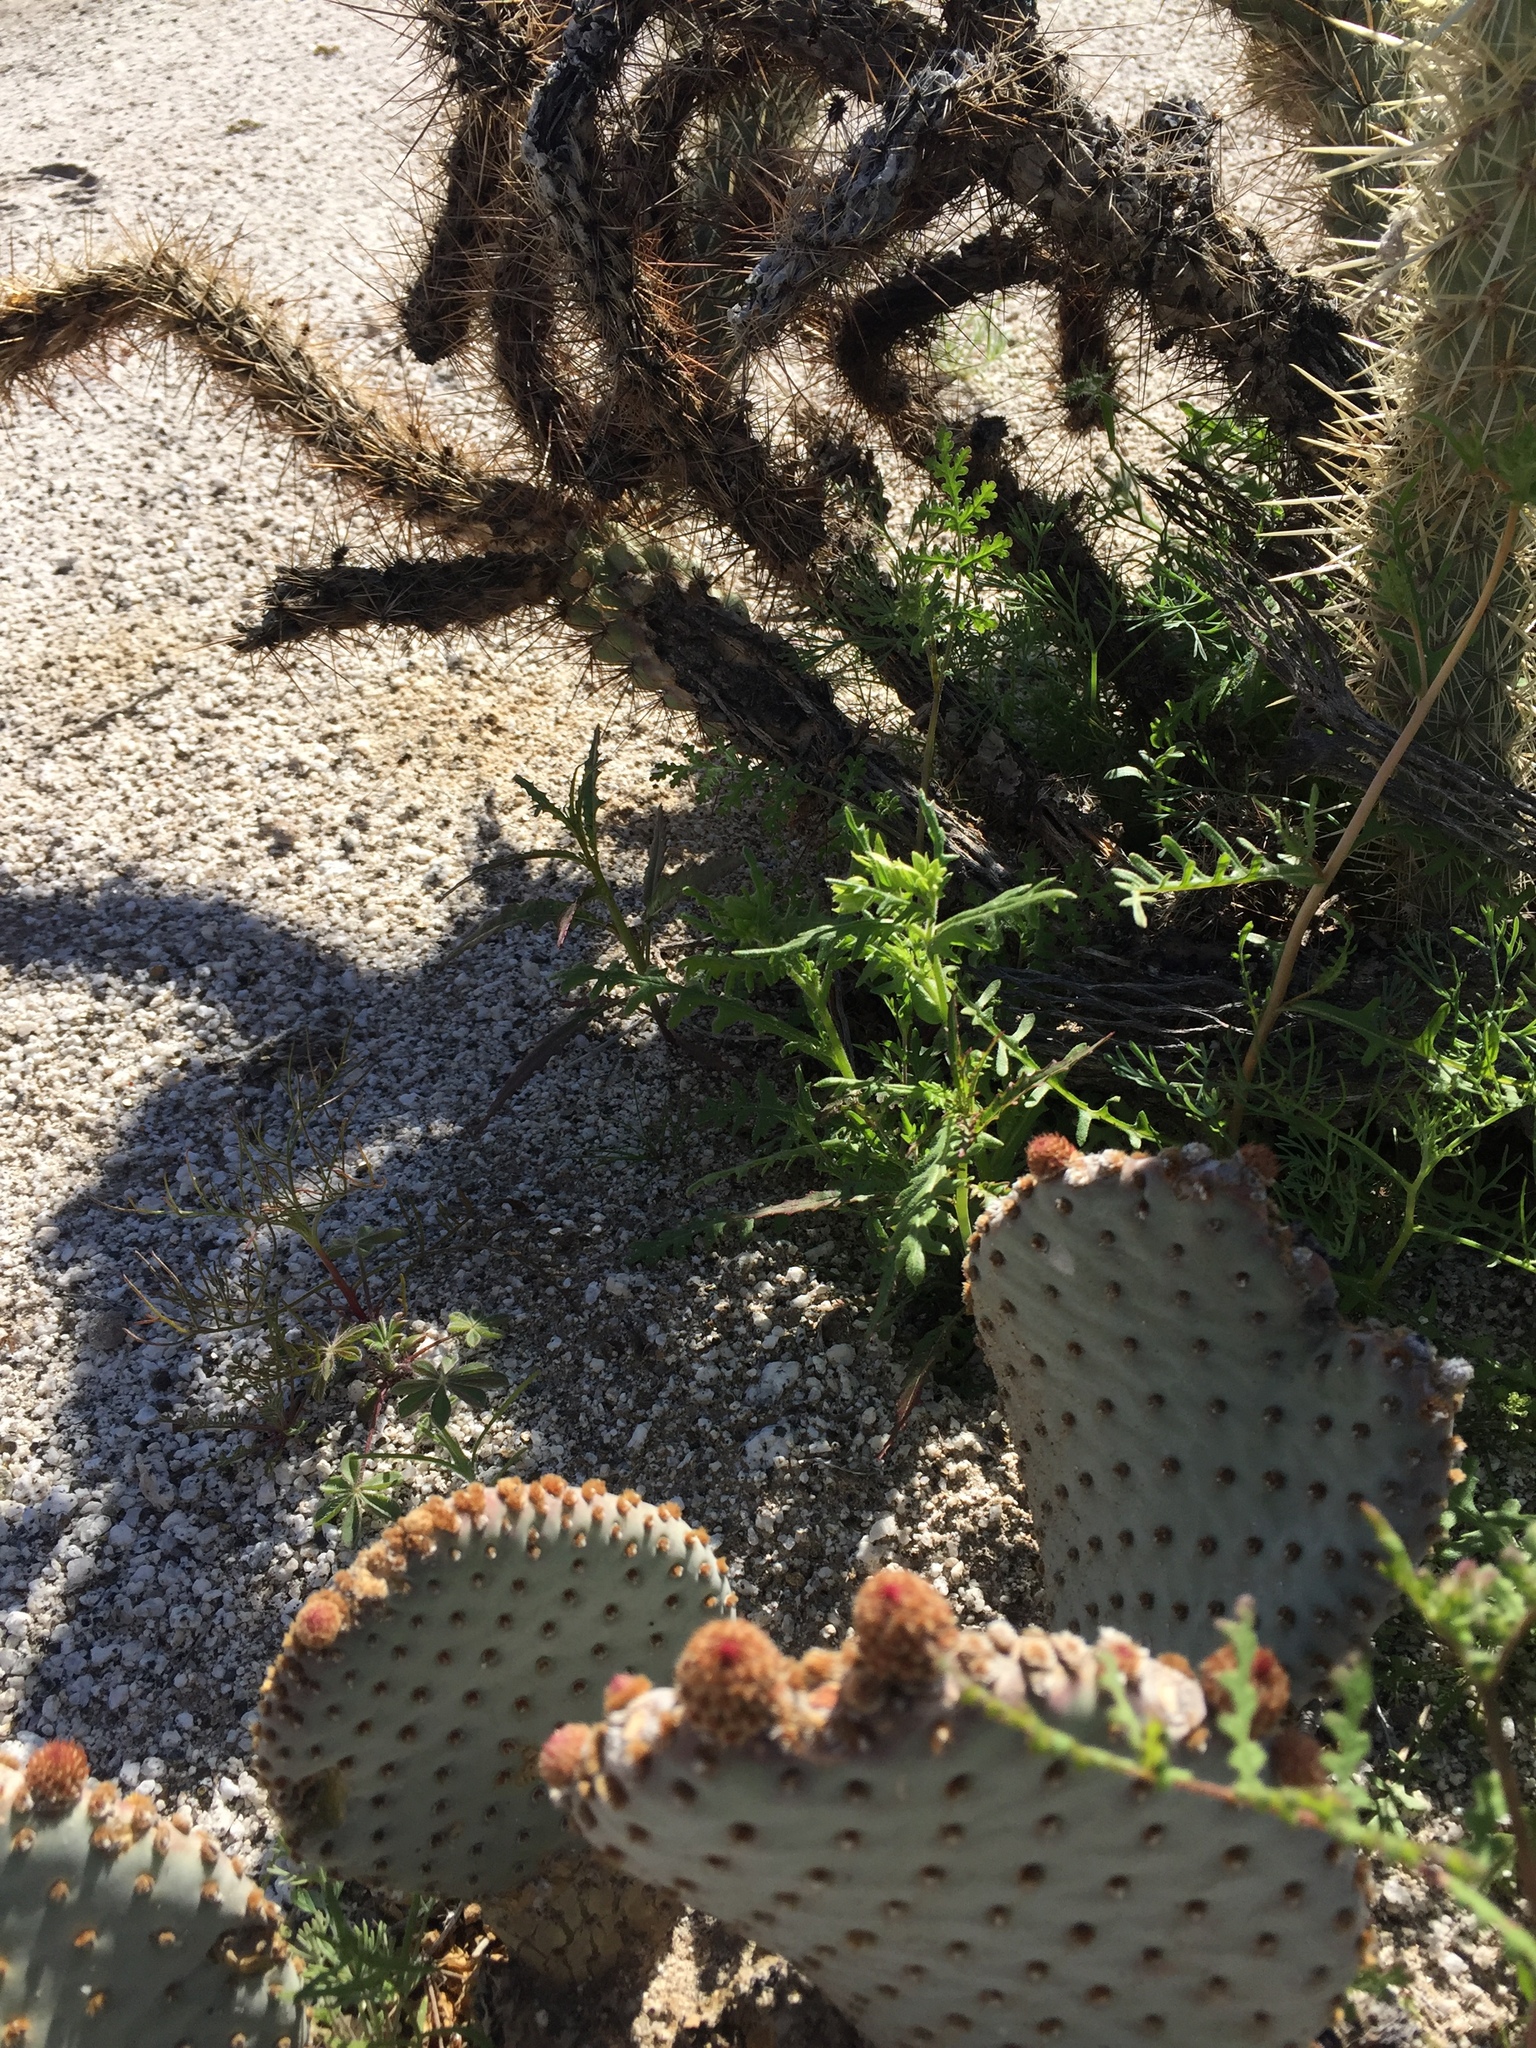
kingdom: Plantae
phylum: Tracheophyta
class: Magnoliopsida
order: Caryophyllales
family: Cactaceae
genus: Opuntia
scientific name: Opuntia basilaris
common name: Beavertail prickly-pear
